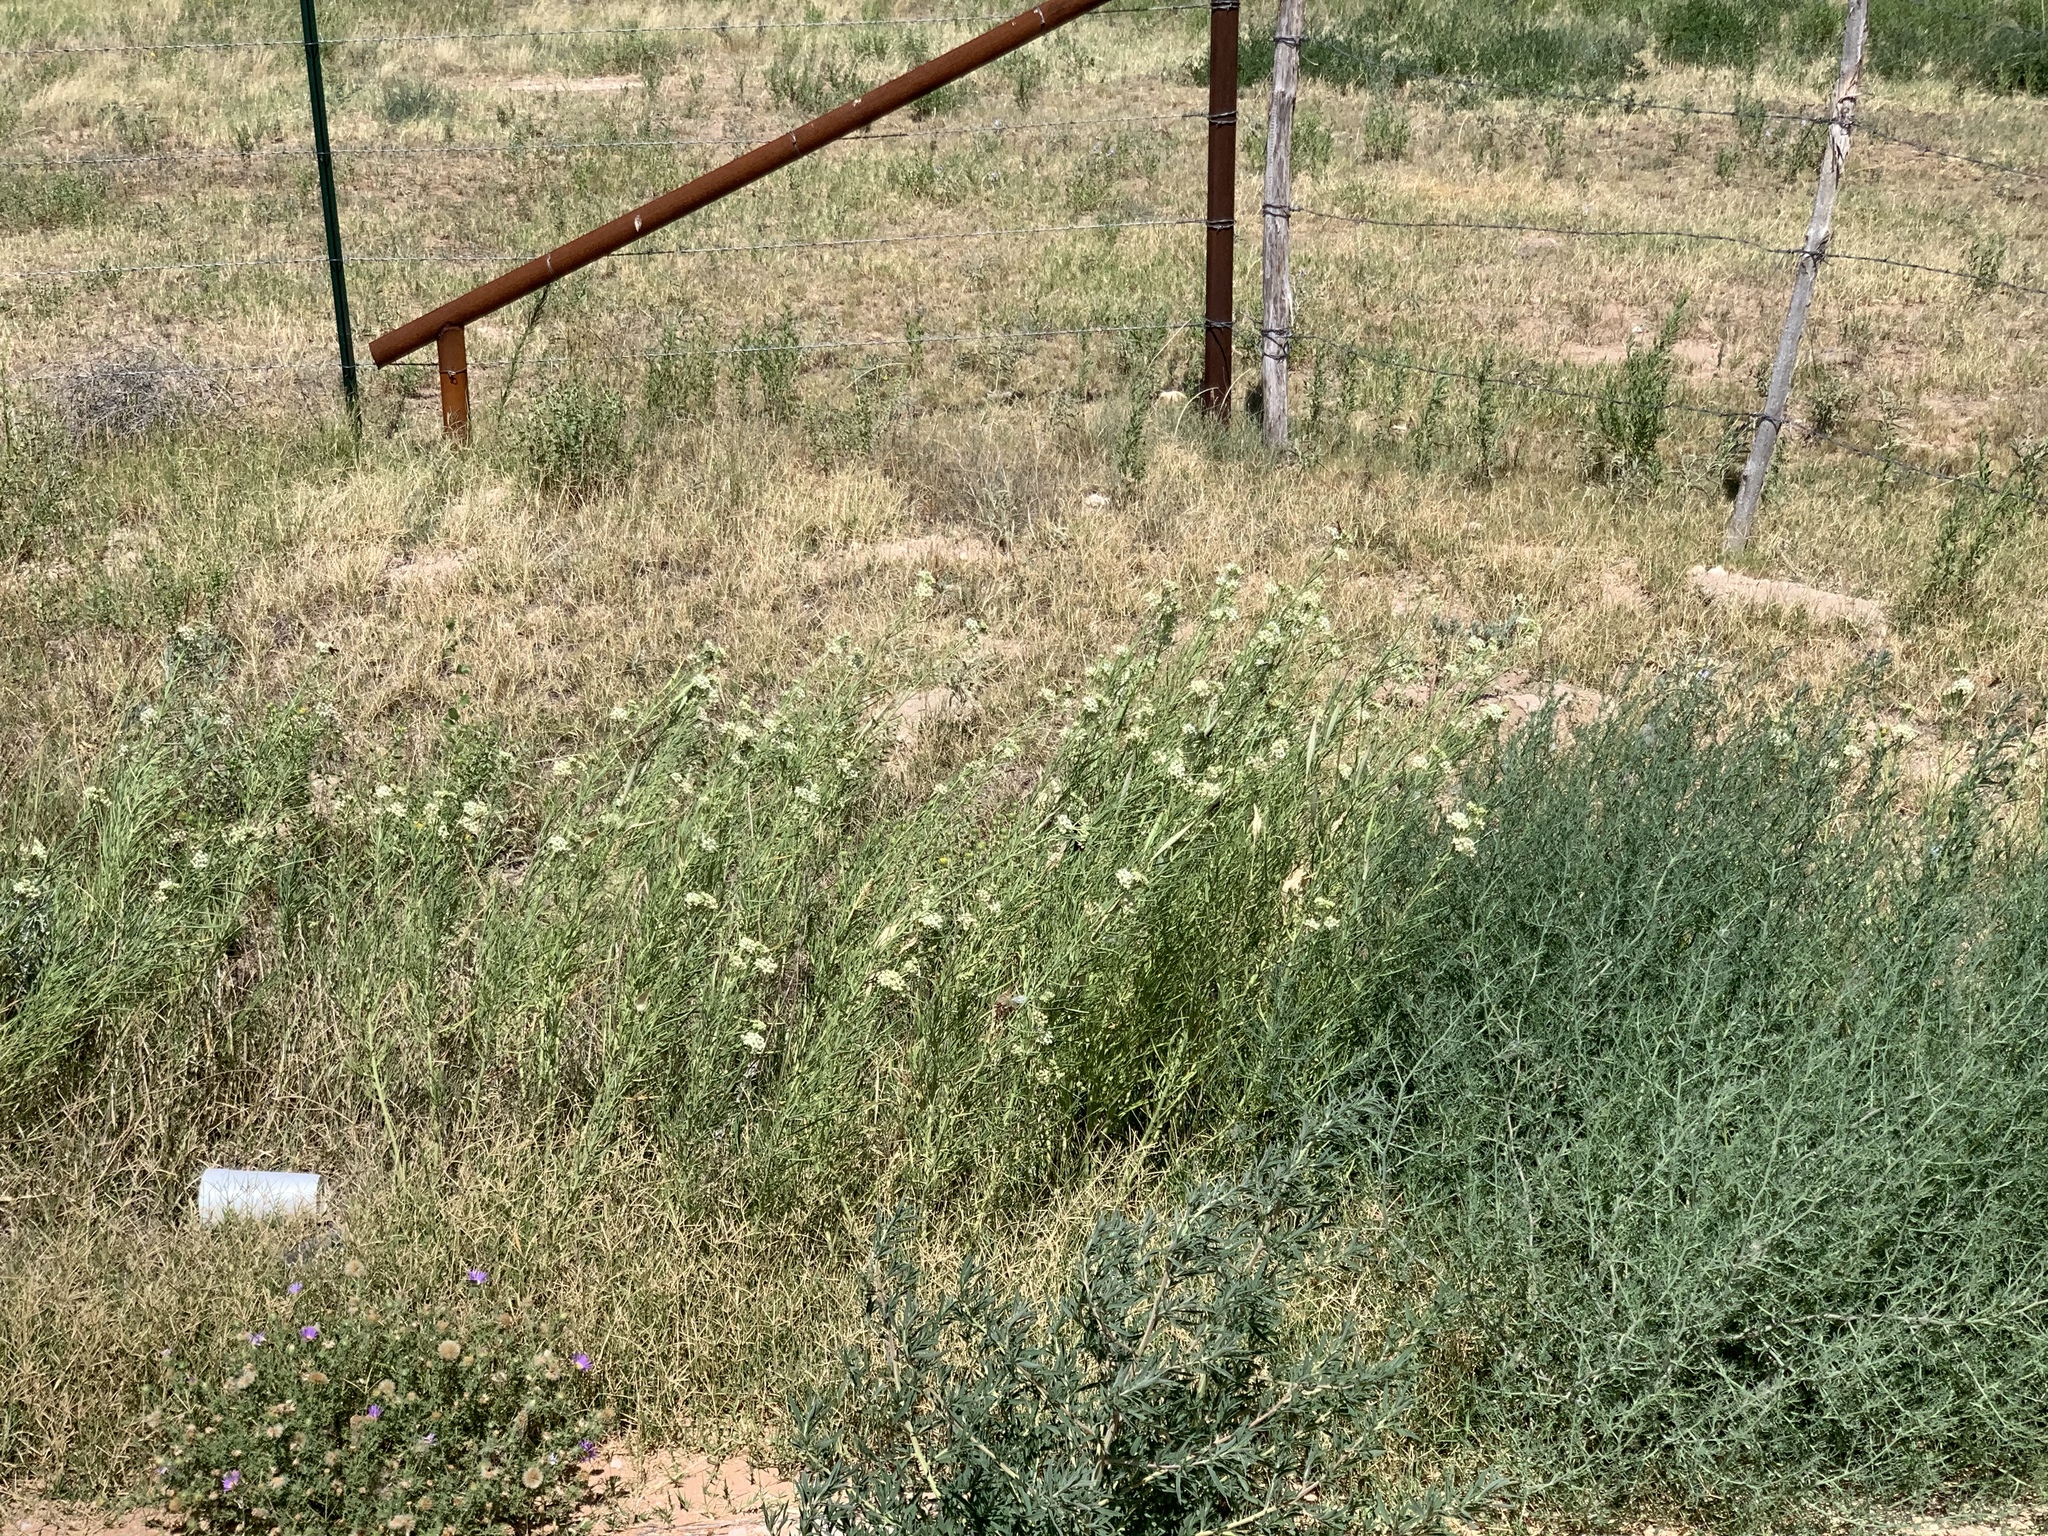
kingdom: Plantae
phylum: Tracheophyta
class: Magnoliopsida
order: Gentianales
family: Apocynaceae
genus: Asclepias
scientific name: Asclepias subverticillata
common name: Horsetail milkweed
